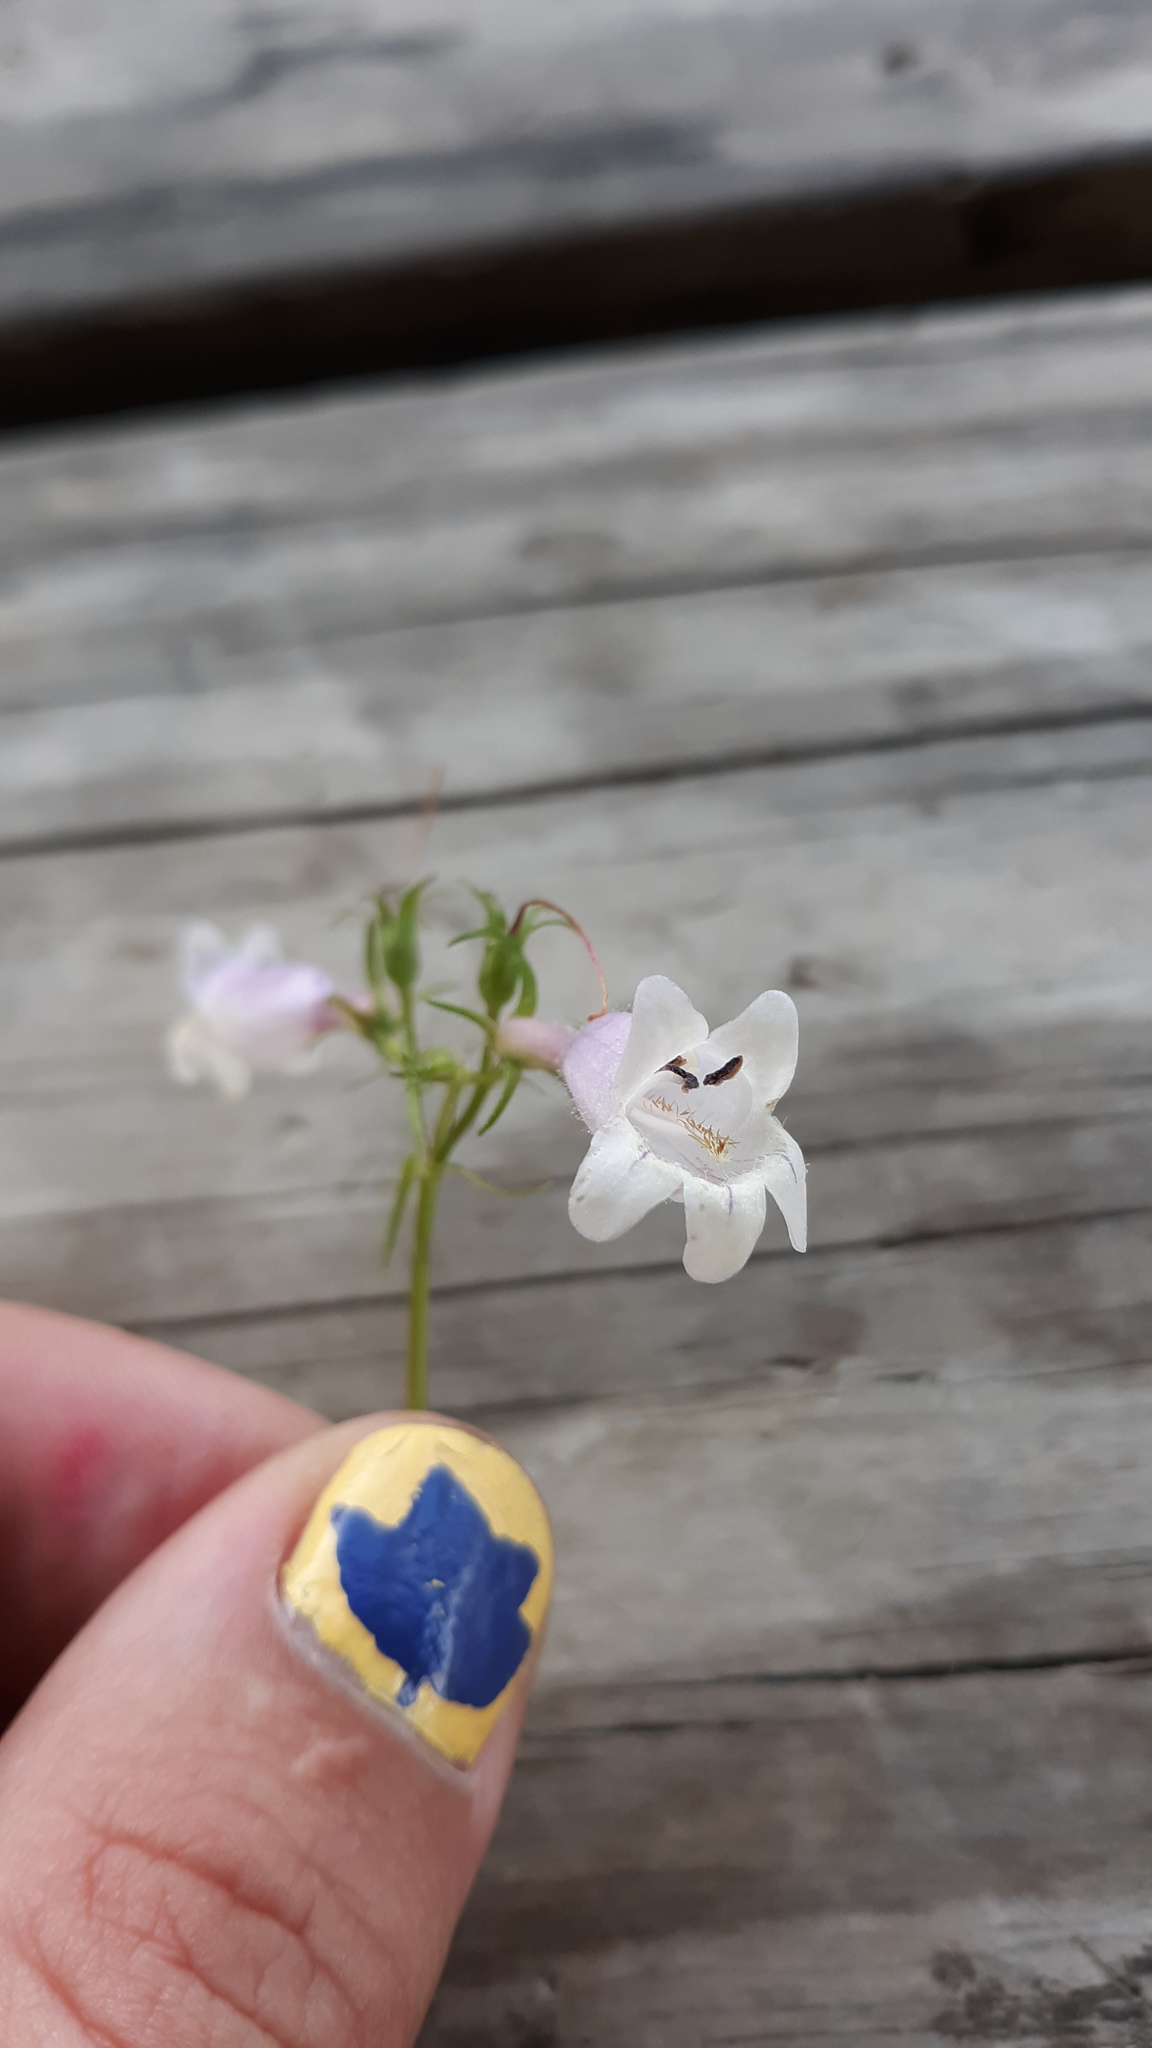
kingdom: Plantae
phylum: Tracheophyta
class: Magnoliopsida
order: Lamiales
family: Plantaginaceae
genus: Penstemon
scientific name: Penstemon digitalis
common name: Foxglove beardtongue
